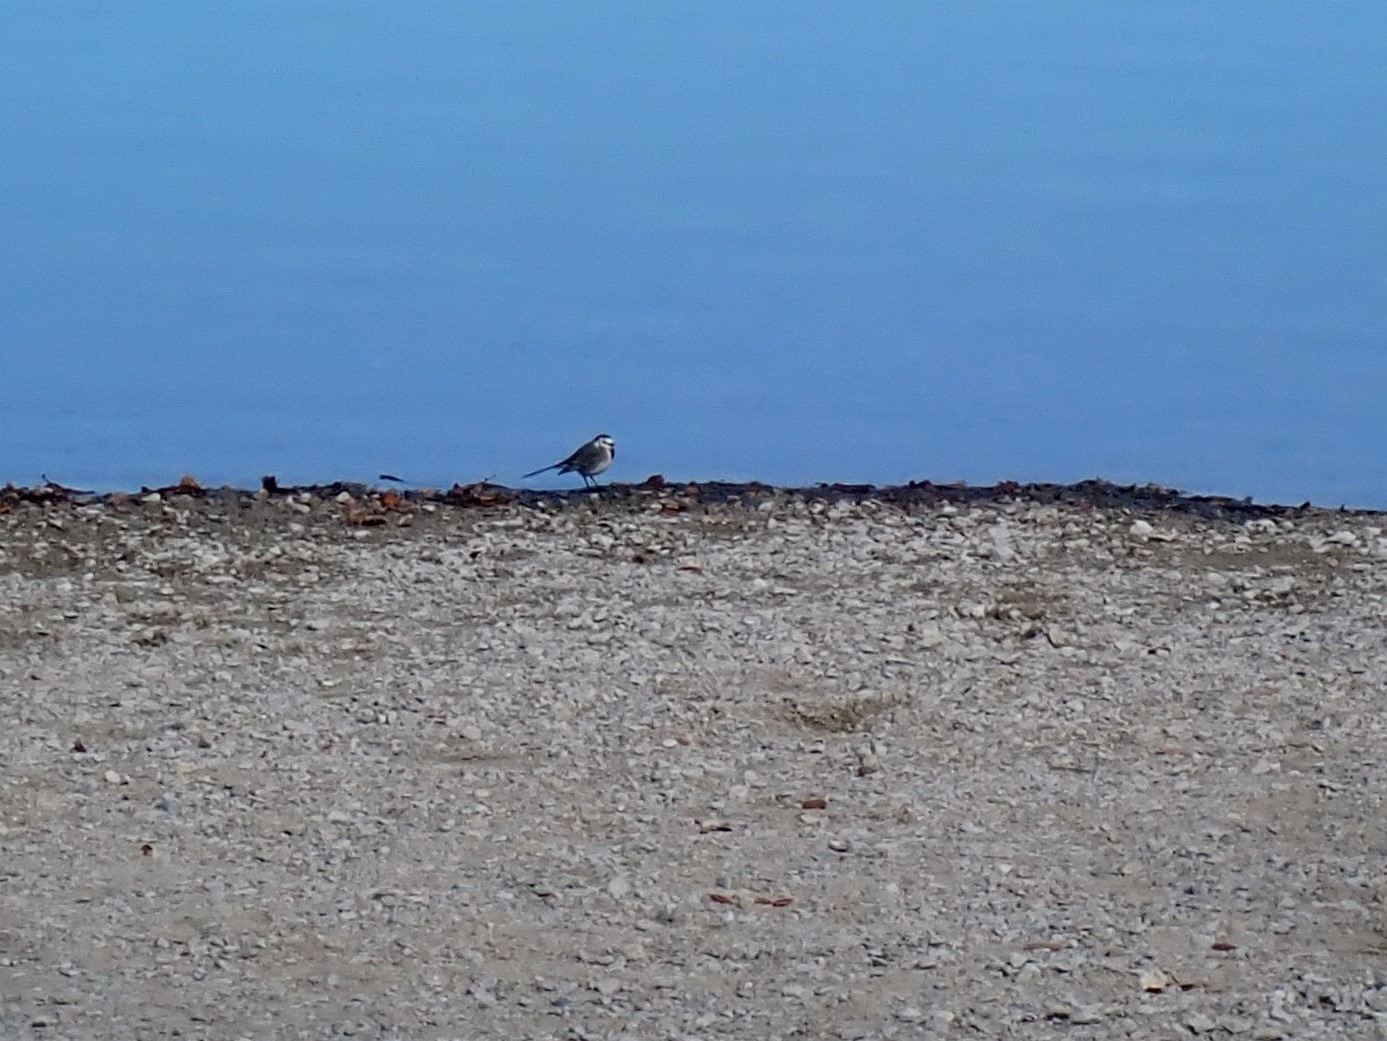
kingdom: Animalia
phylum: Chordata
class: Aves
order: Passeriformes
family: Motacillidae
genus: Motacilla
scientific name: Motacilla alba
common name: White wagtail
